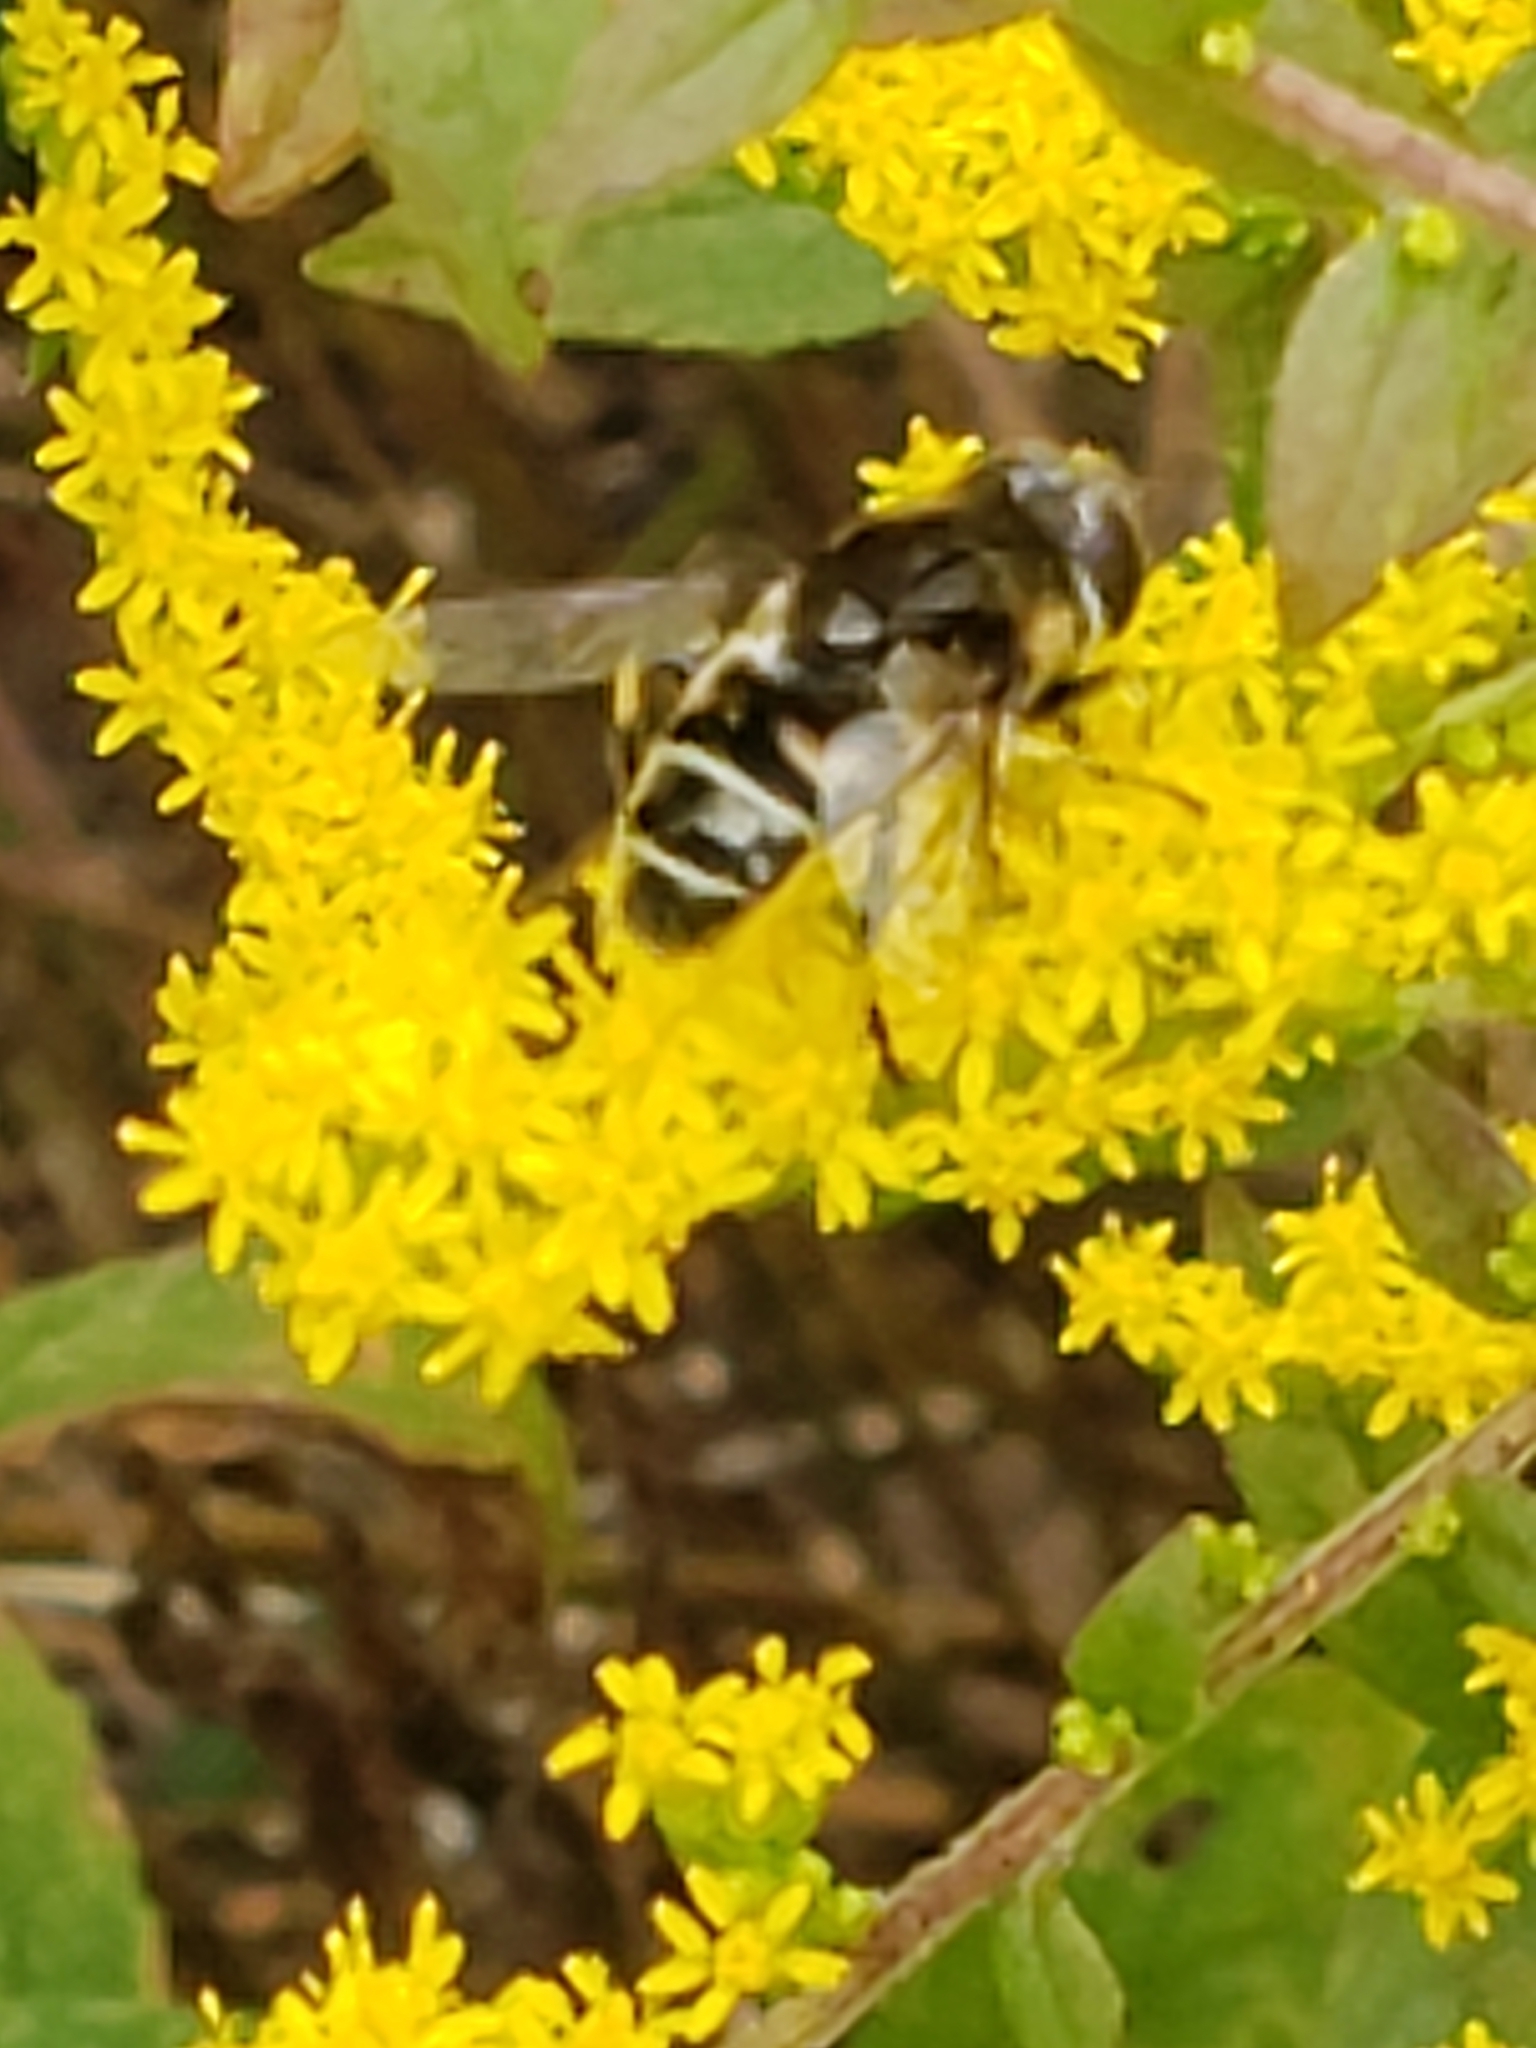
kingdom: Animalia
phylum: Arthropoda
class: Insecta
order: Diptera
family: Syrphidae
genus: Eristalis
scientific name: Eristalis dimidiata
